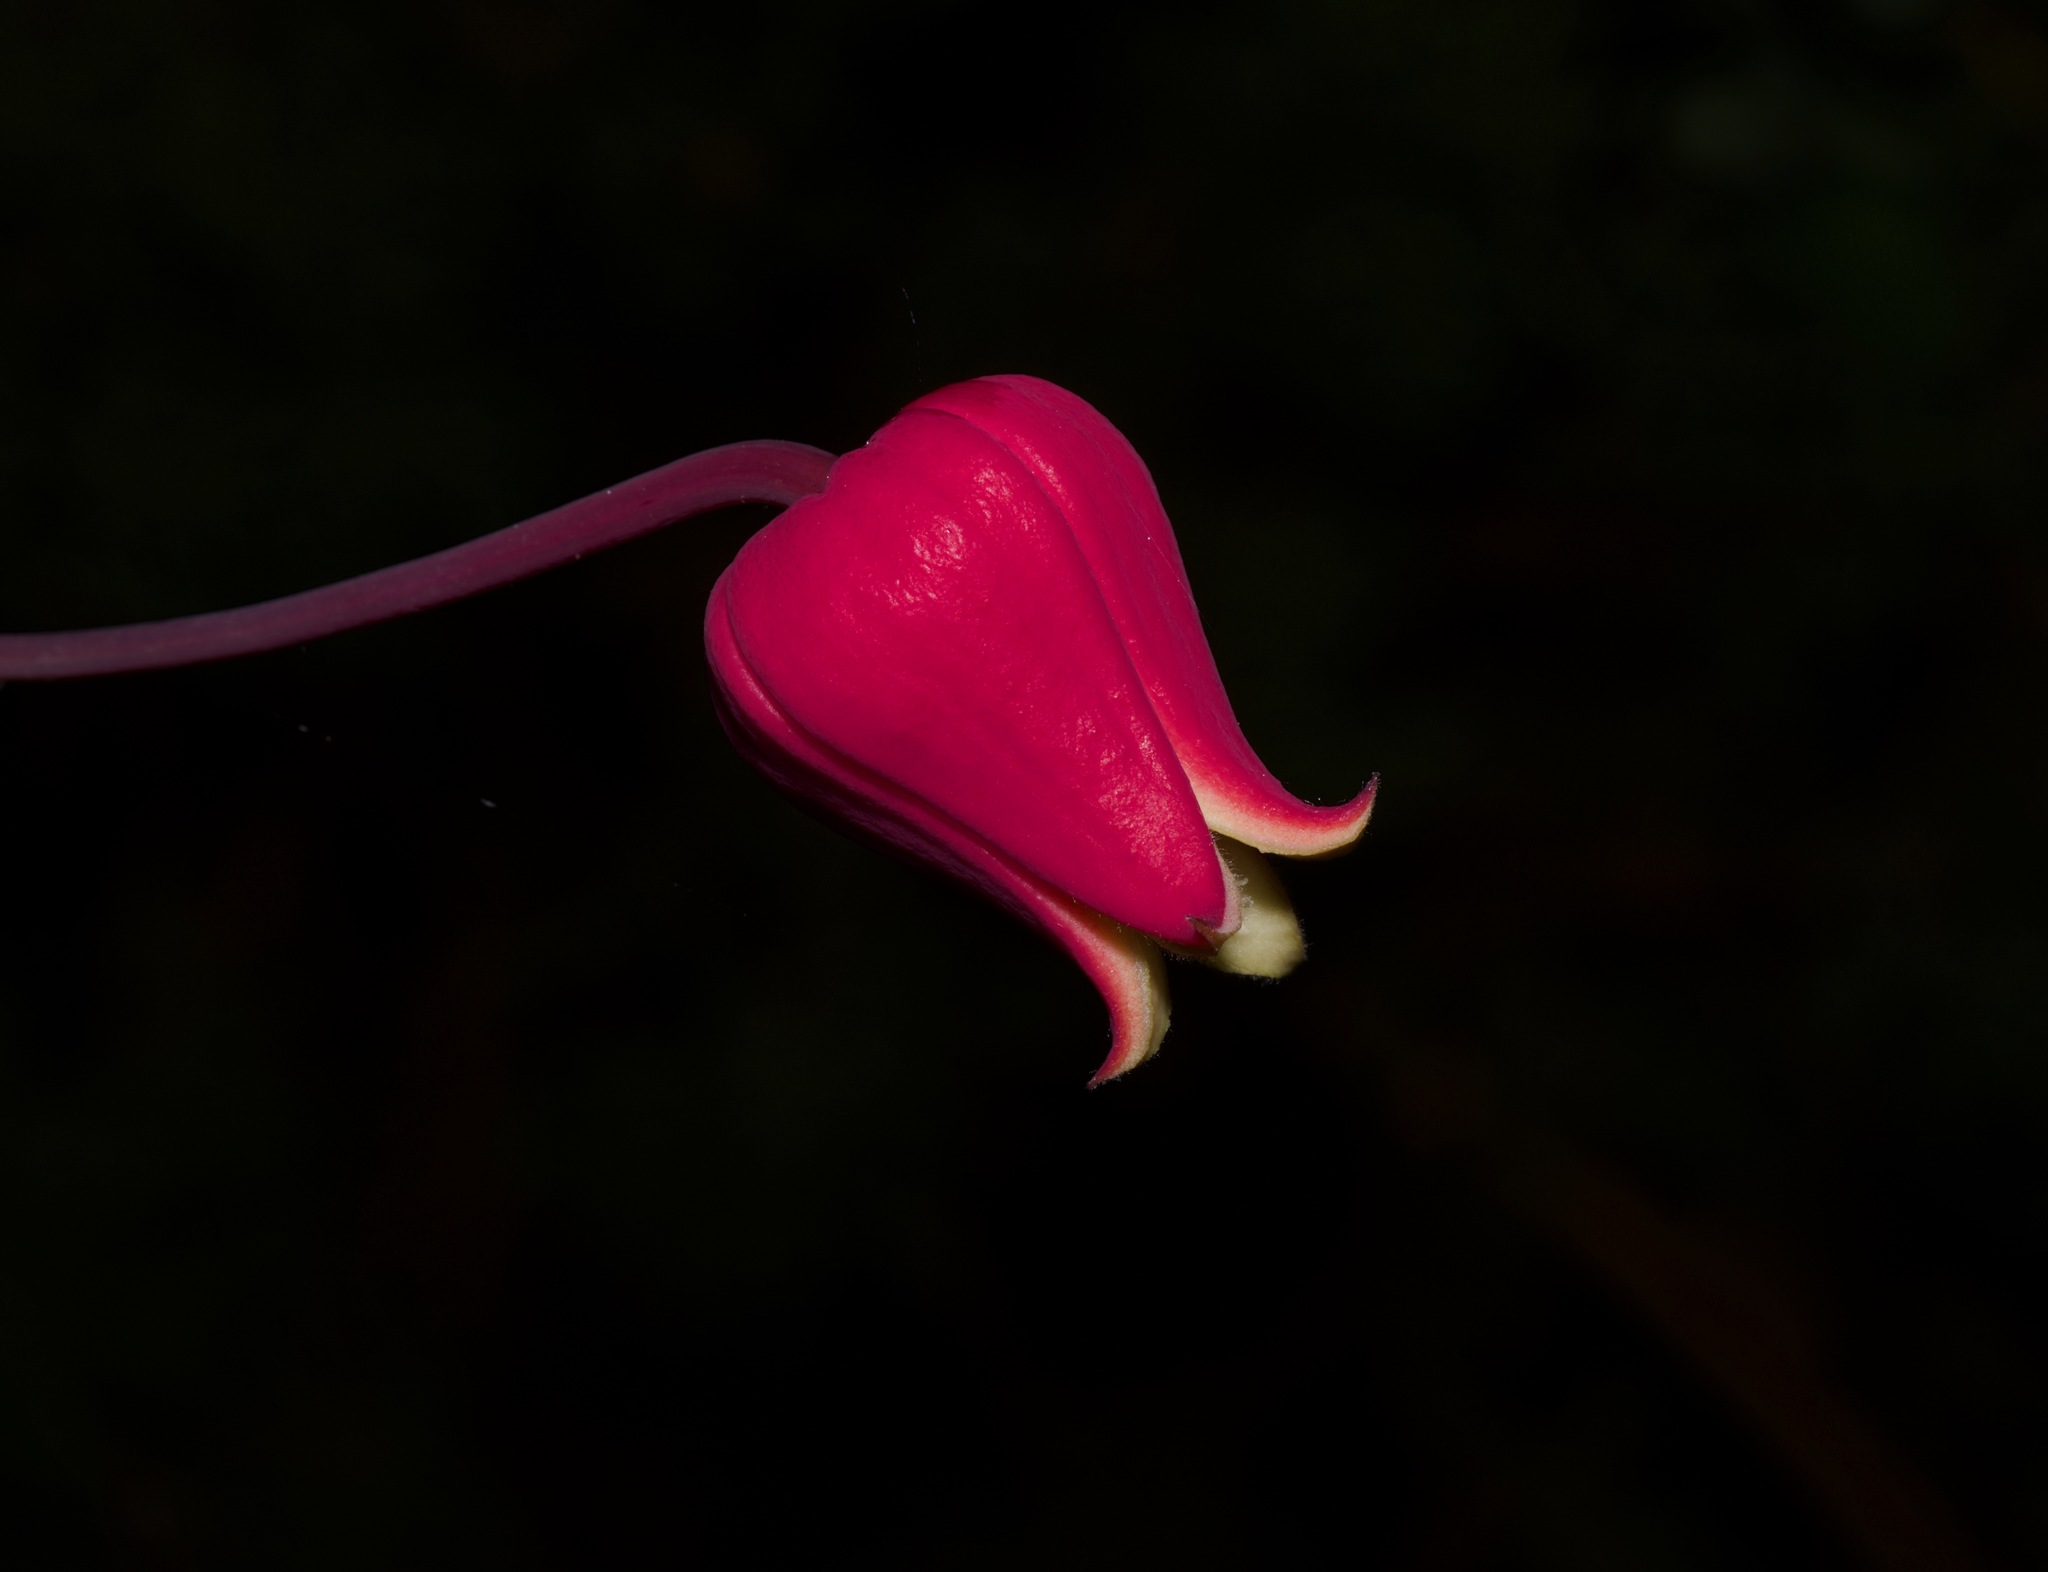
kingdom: Plantae
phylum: Tracheophyta
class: Magnoliopsida
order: Ranunculales
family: Ranunculaceae
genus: Clematis
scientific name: Clematis texensis
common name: Crimson clematis
